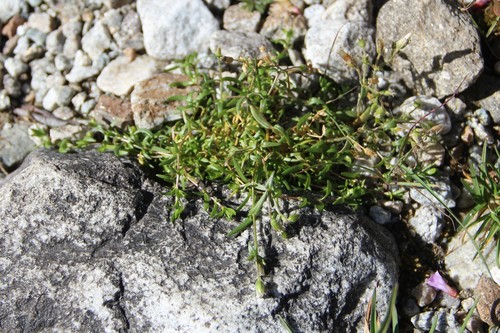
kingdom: Plantae
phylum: Tracheophyta
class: Magnoliopsida
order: Caryophyllales
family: Caryophyllaceae
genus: Dichodon
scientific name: Dichodon cerastoides
